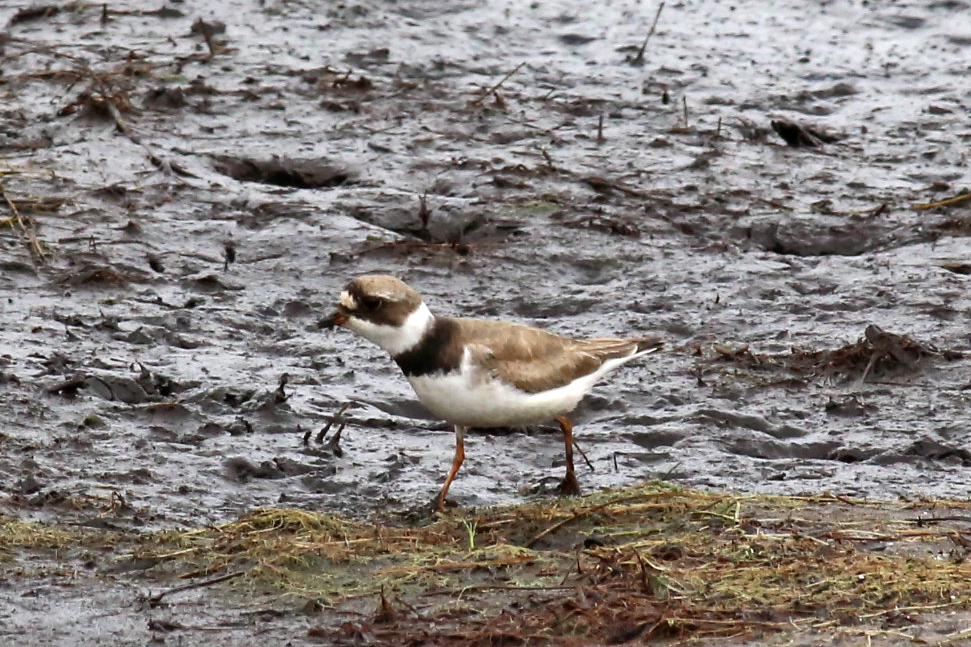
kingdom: Animalia
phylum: Chordata
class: Aves
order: Charadriiformes
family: Charadriidae
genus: Charadrius
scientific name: Charadrius semipalmatus
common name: Semipalmated plover
